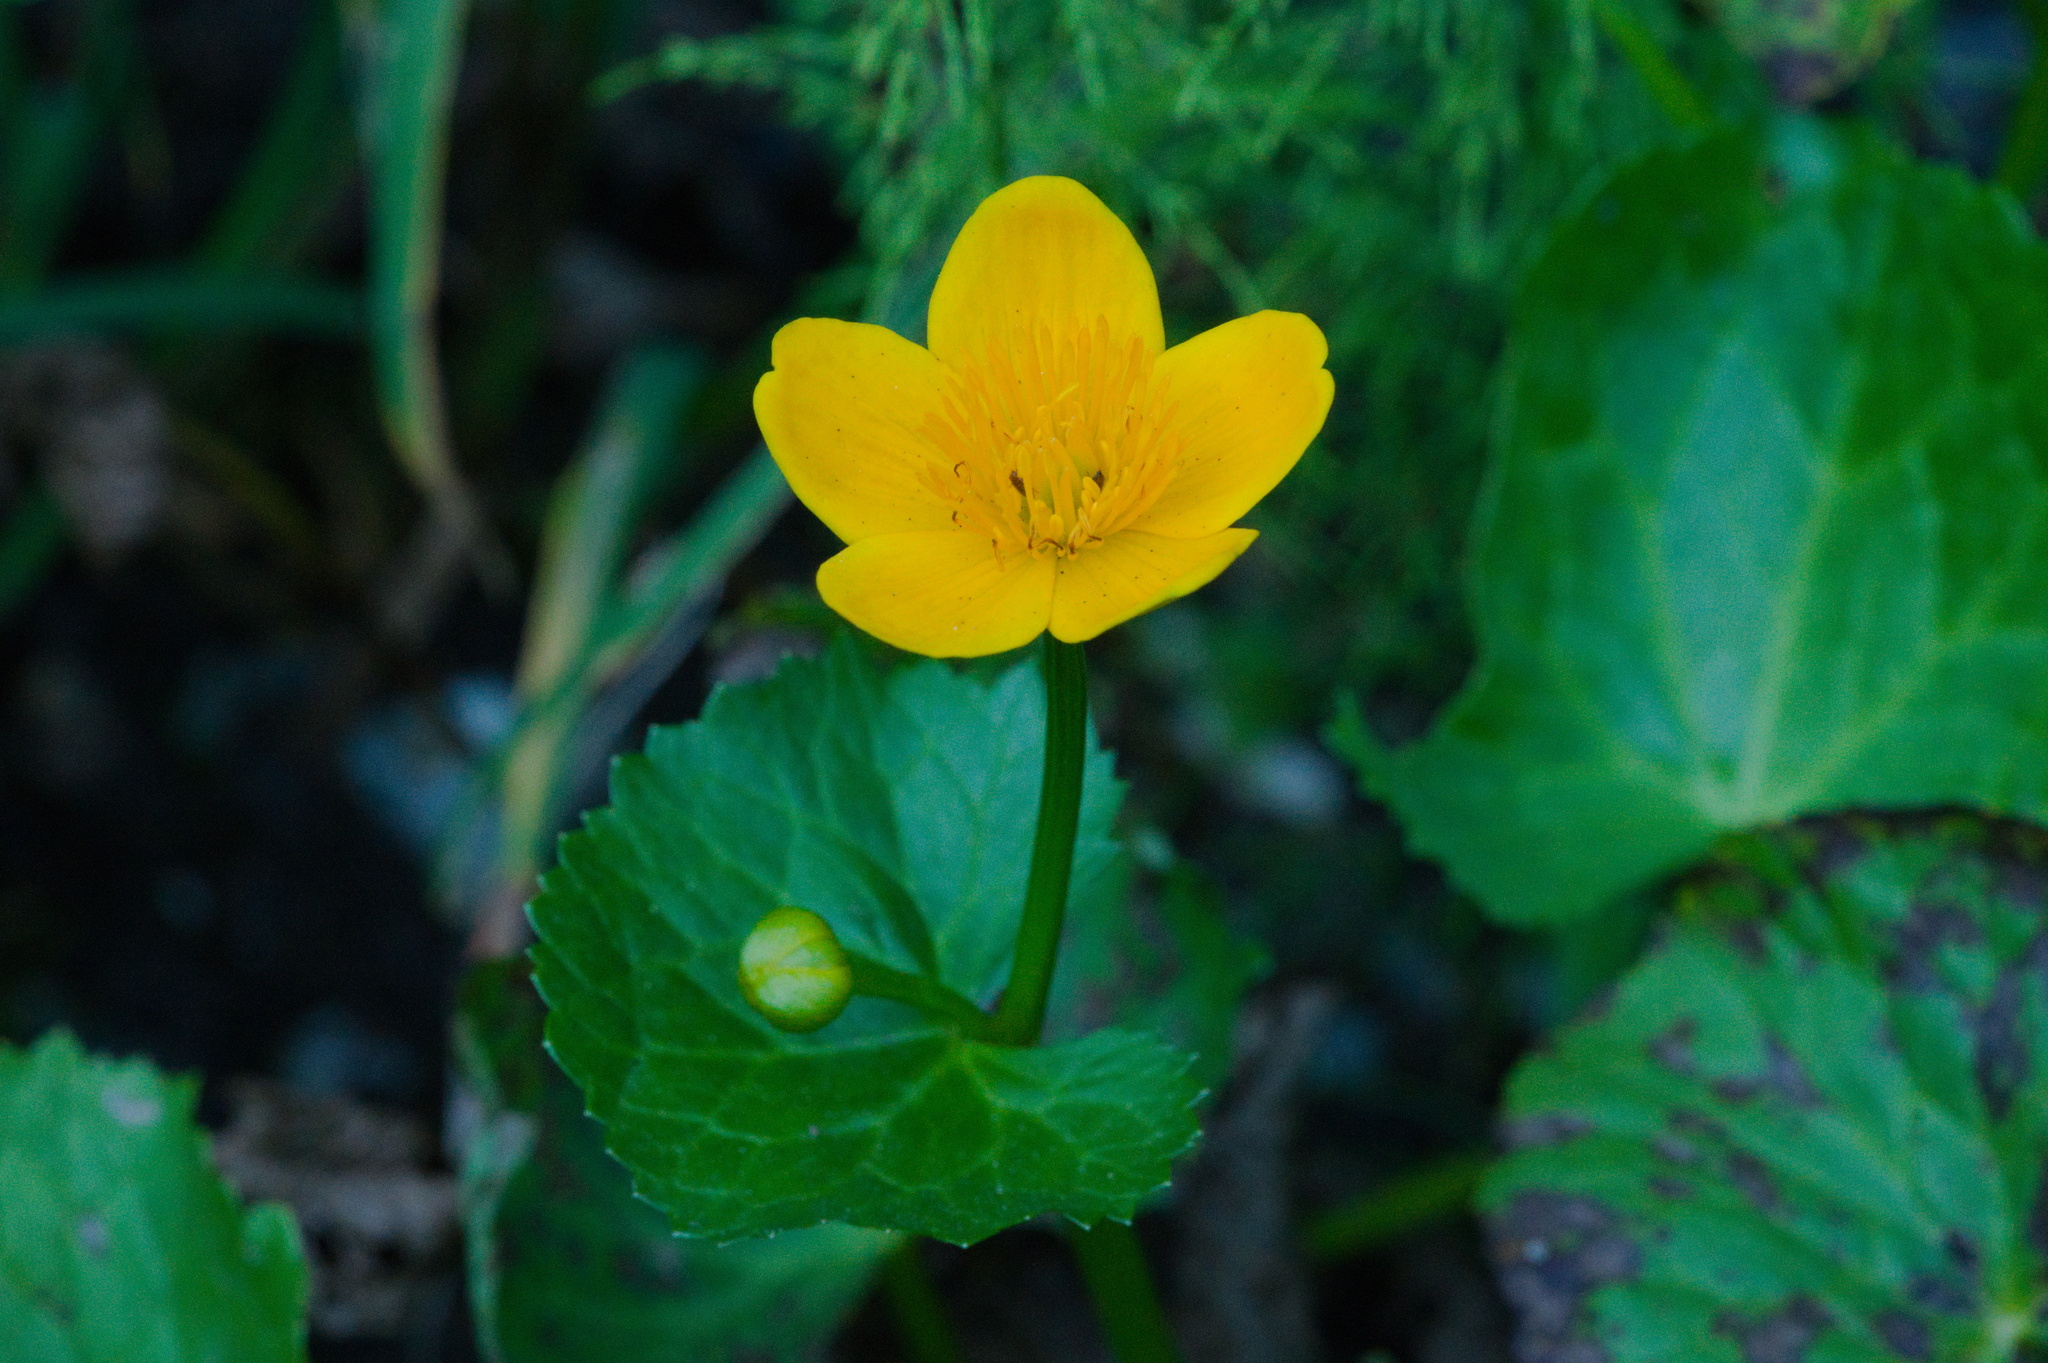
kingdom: Plantae
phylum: Tracheophyta
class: Magnoliopsida
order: Ranunculales
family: Ranunculaceae
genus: Caltha
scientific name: Caltha palustris
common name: Marsh marigold
